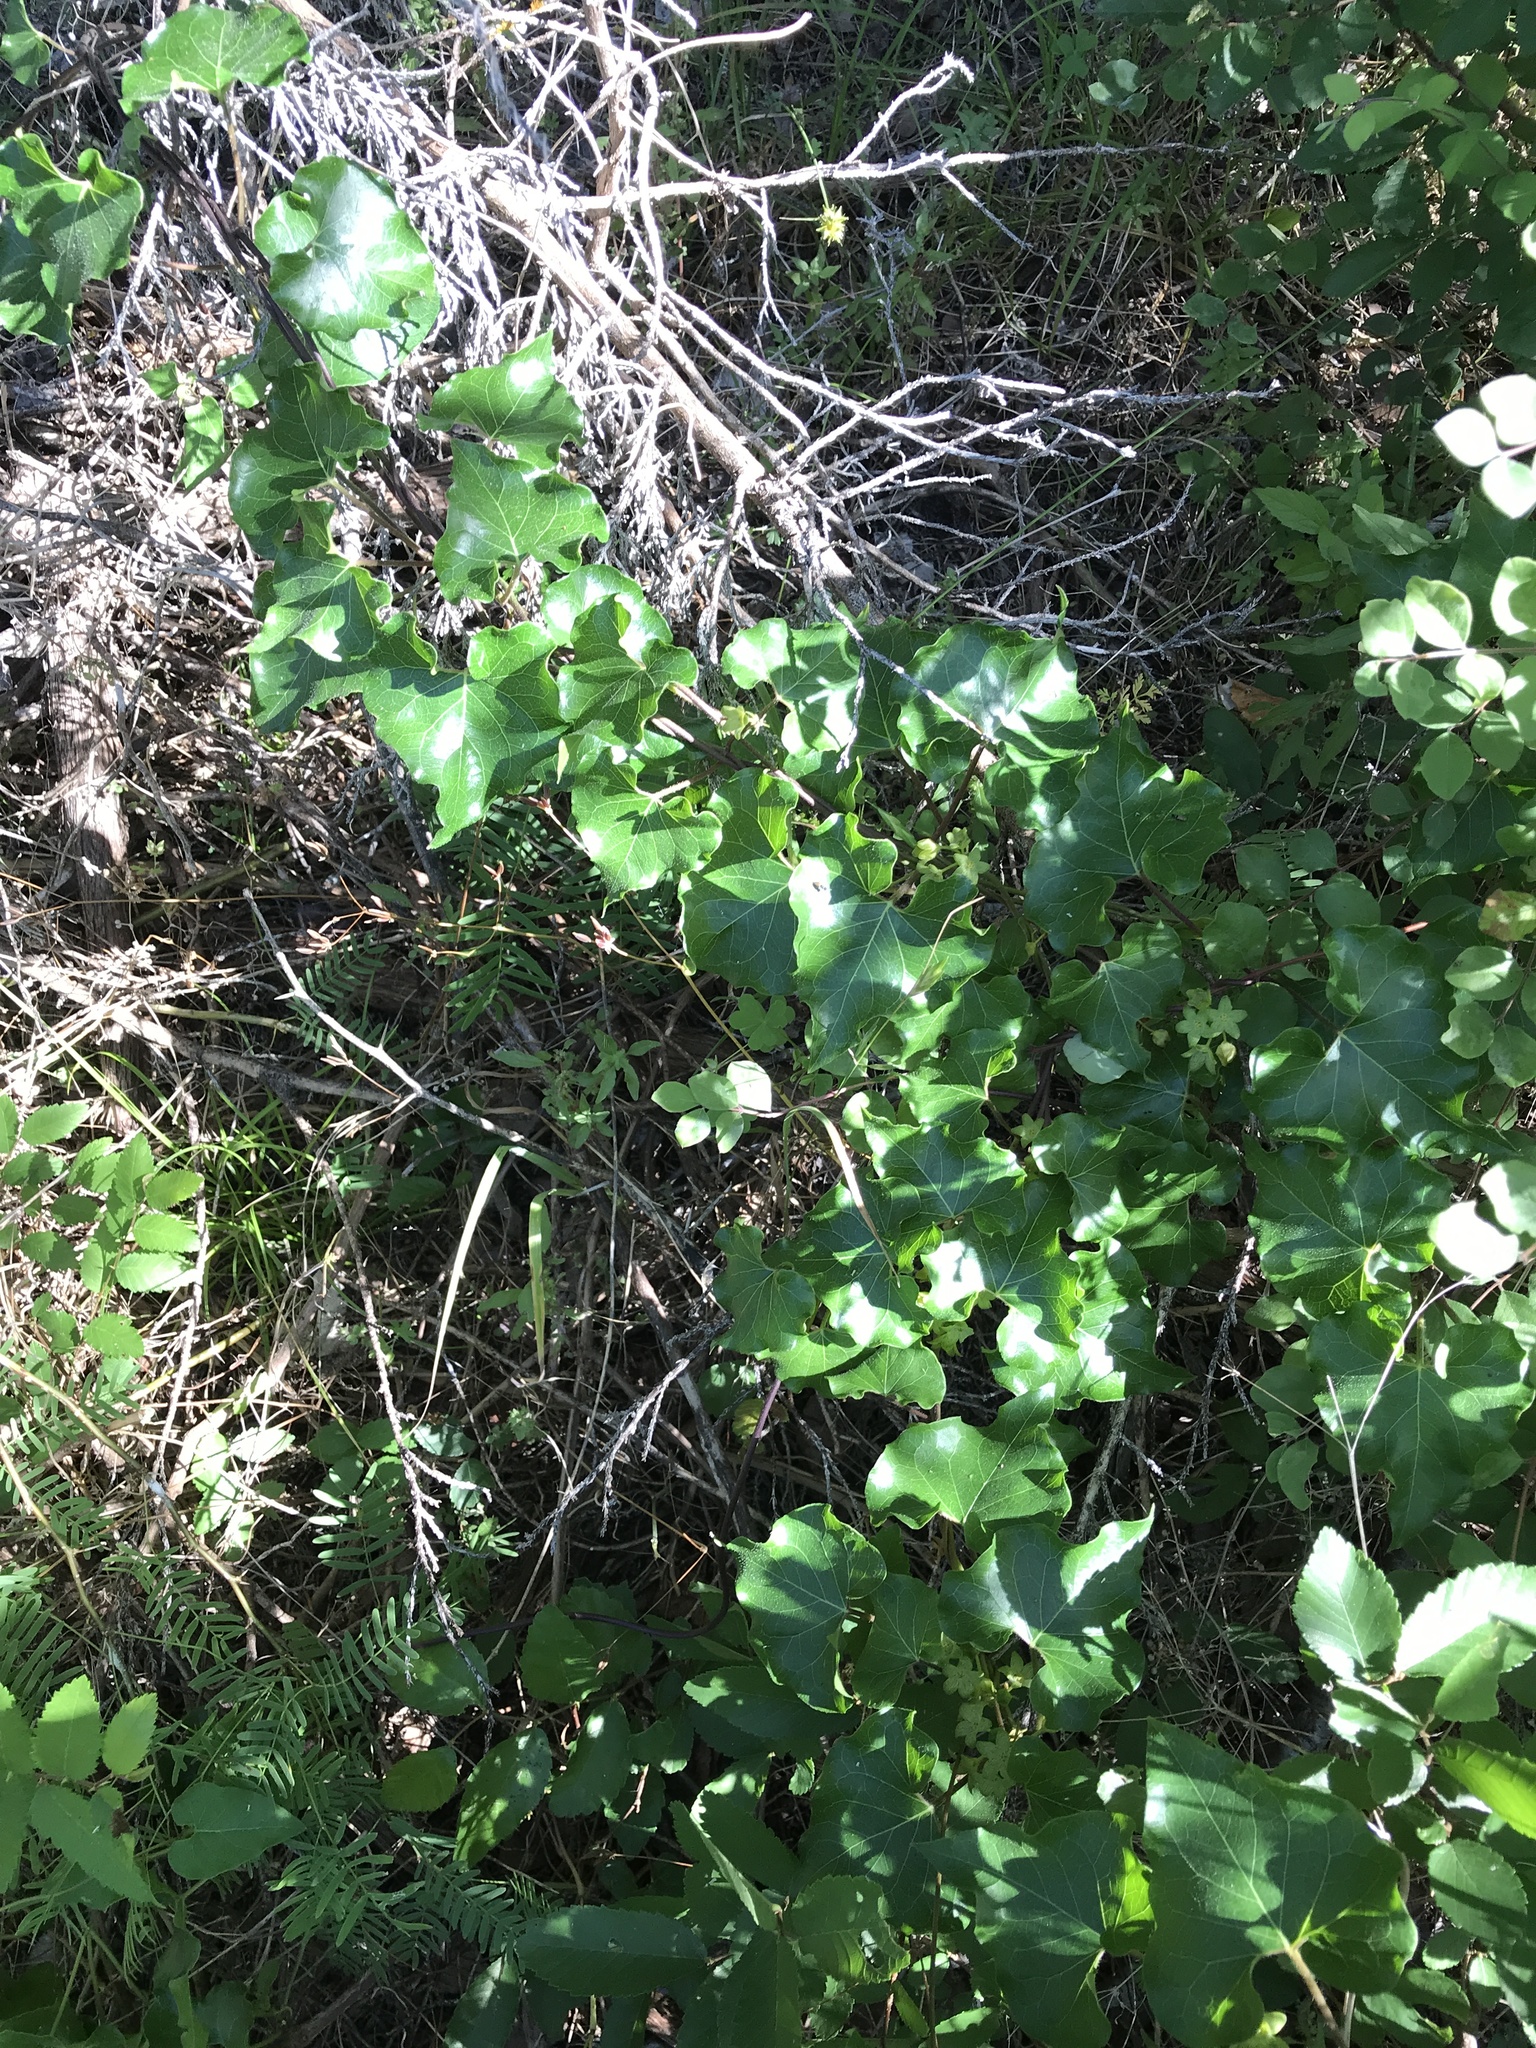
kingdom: Plantae
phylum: Tracheophyta
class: Magnoliopsida
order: Gentianales
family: Apocynaceae
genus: Matelea
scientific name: Matelea edwardsensis
